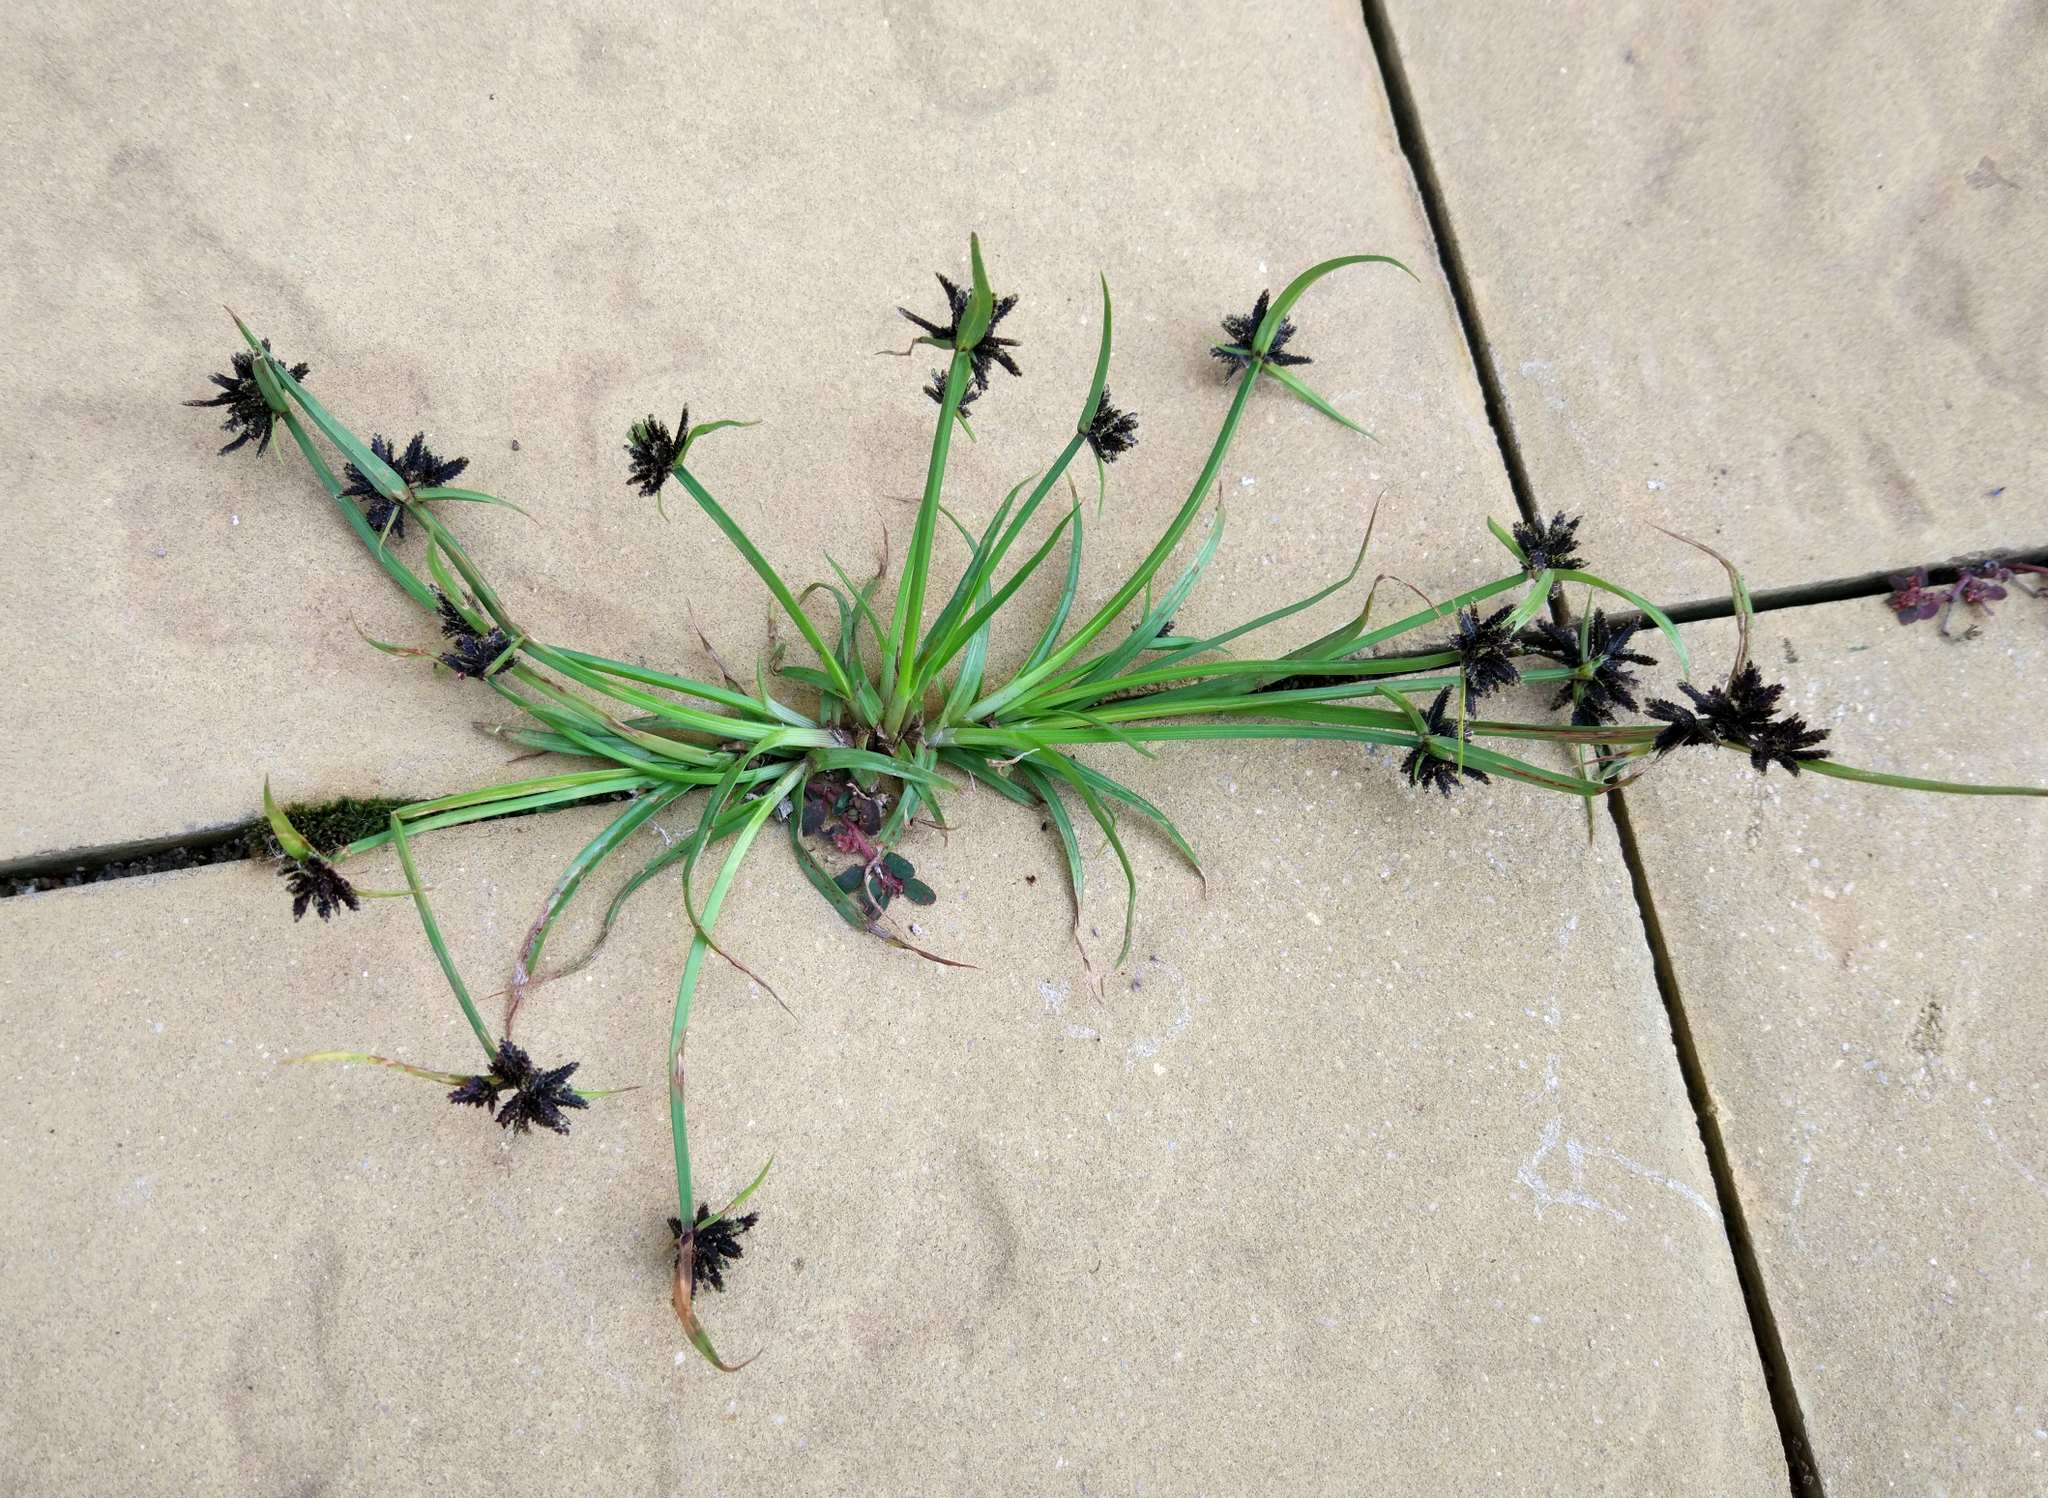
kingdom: Plantae
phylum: Tracheophyta
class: Liliopsida
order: Poales
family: Cyperaceae
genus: Cyperus
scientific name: Cyperus fuscus
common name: Brown galingale
